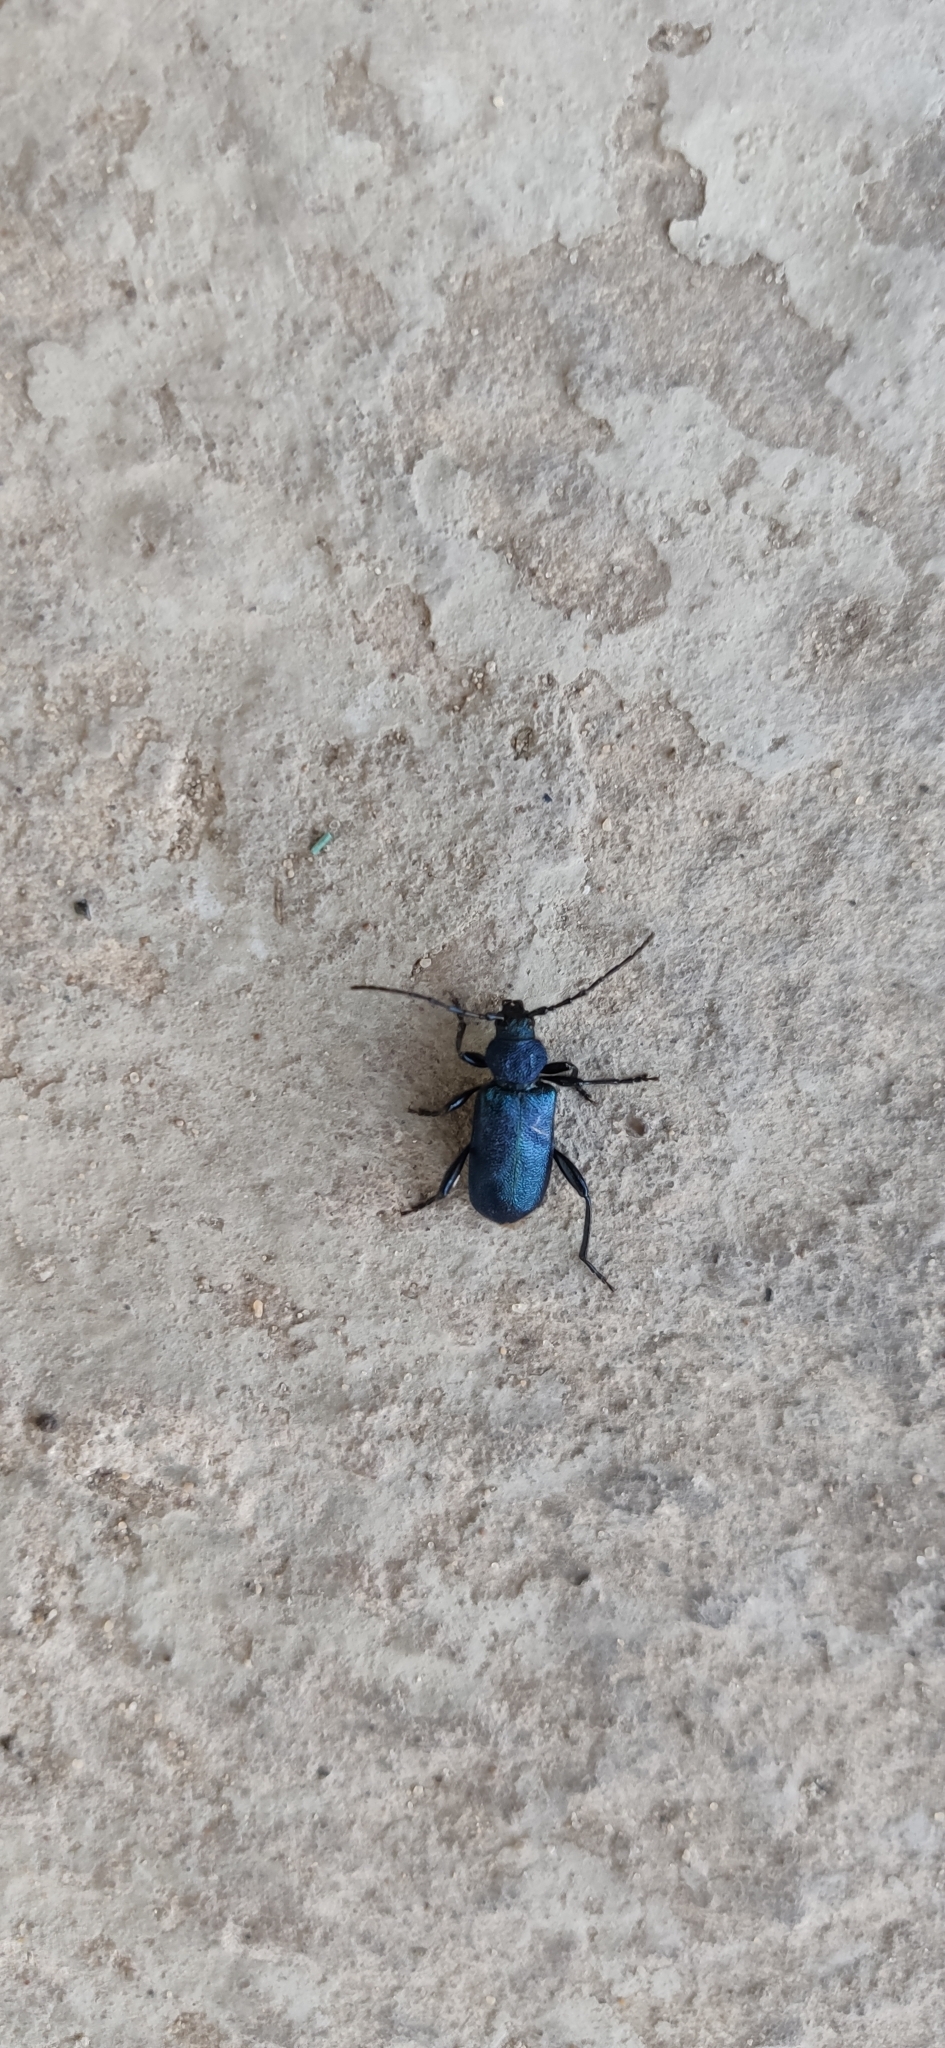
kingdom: Animalia
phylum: Arthropoda
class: Insecta
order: Coleoptera
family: Cerambycidae
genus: Callidium
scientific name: Callidium violaceum
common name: Violet tanbark beetle
